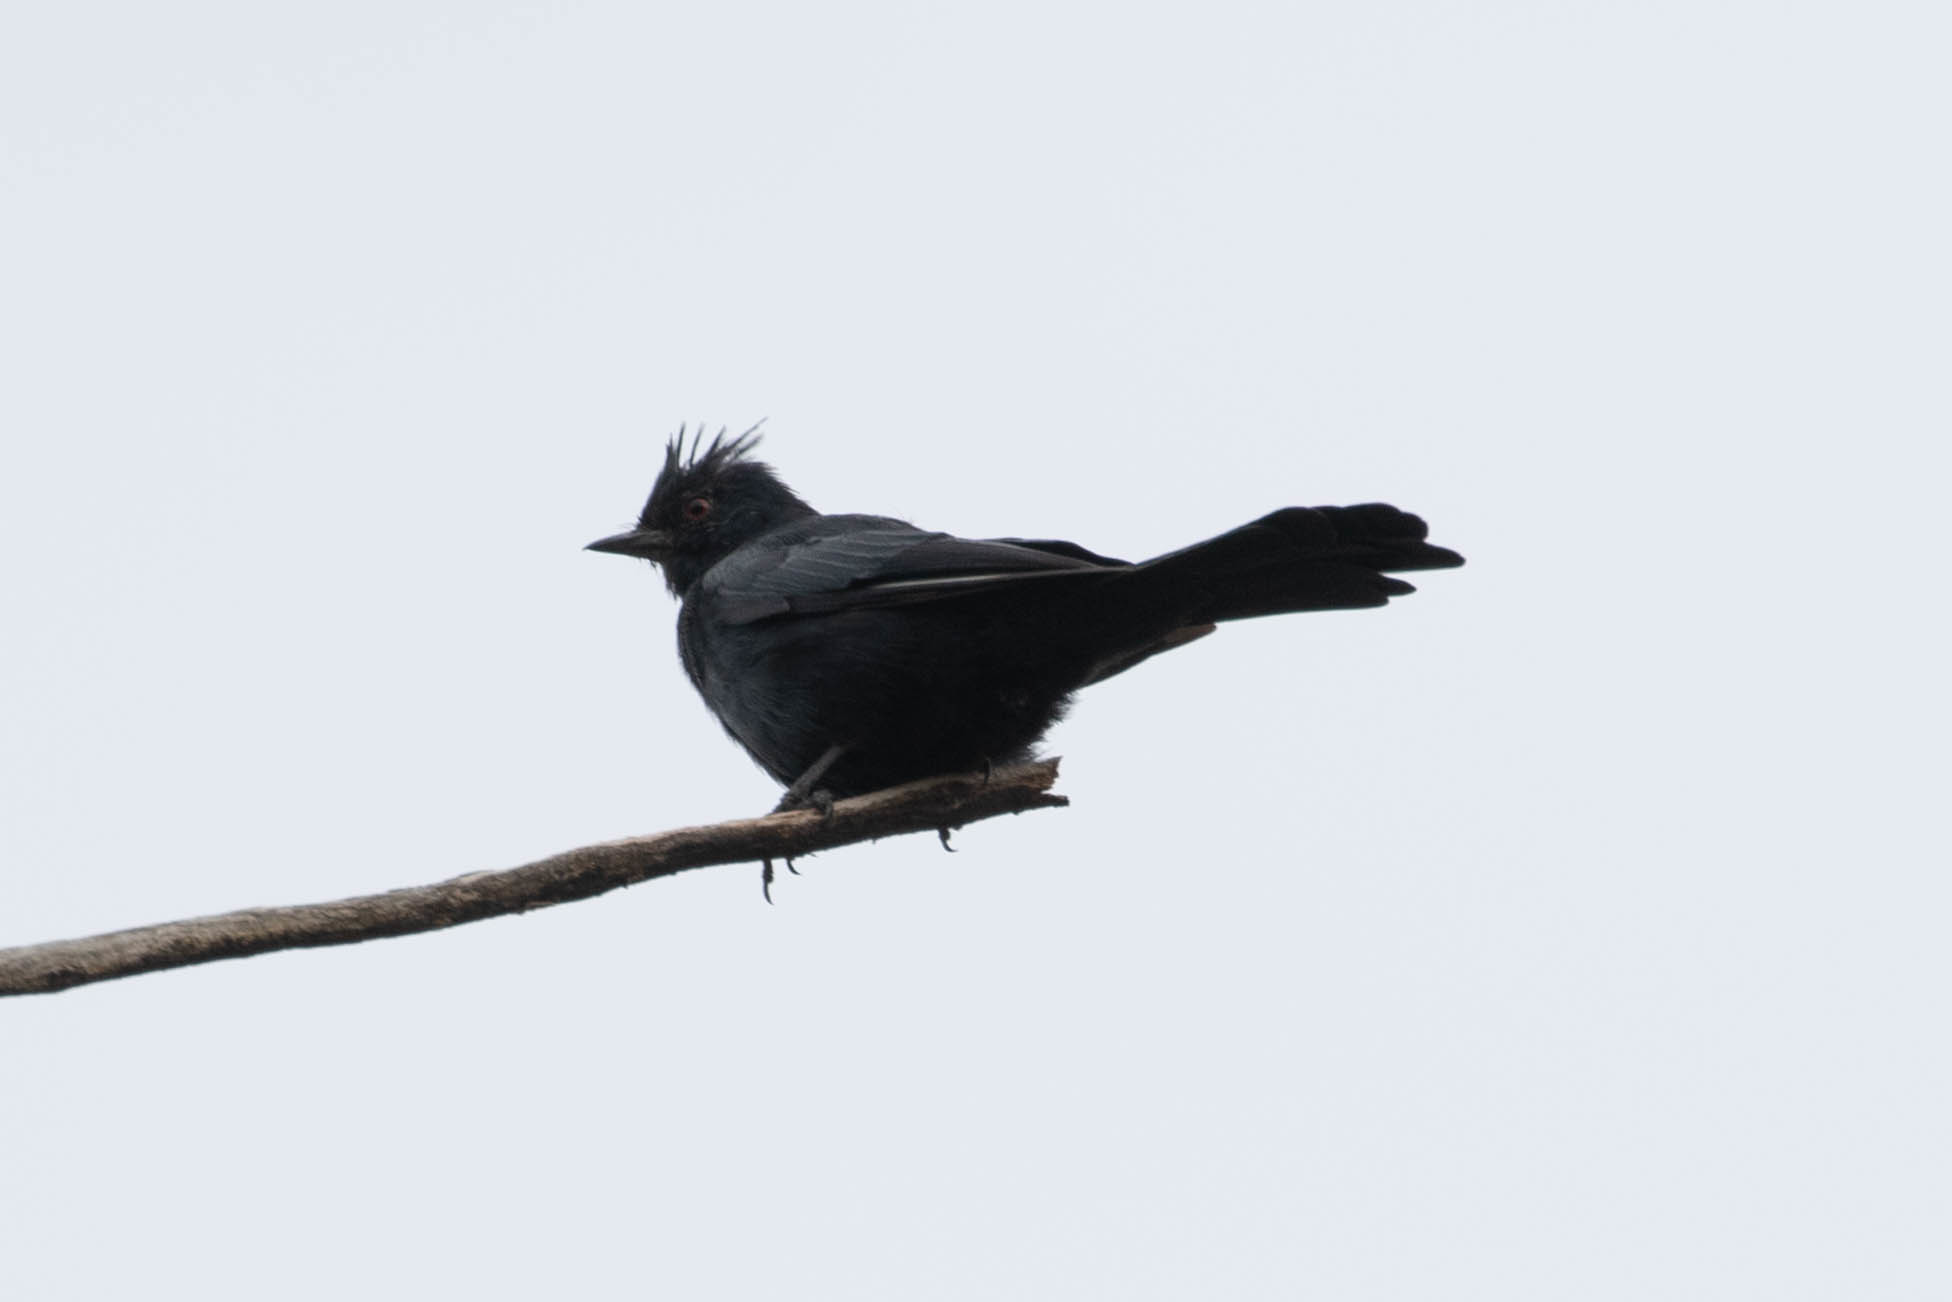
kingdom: Animalia
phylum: Chordata
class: Aves
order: Passeriformes
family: Ptilogonatidae
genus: Phainopepla
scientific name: Phainopepla nitens
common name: Phainopepla
